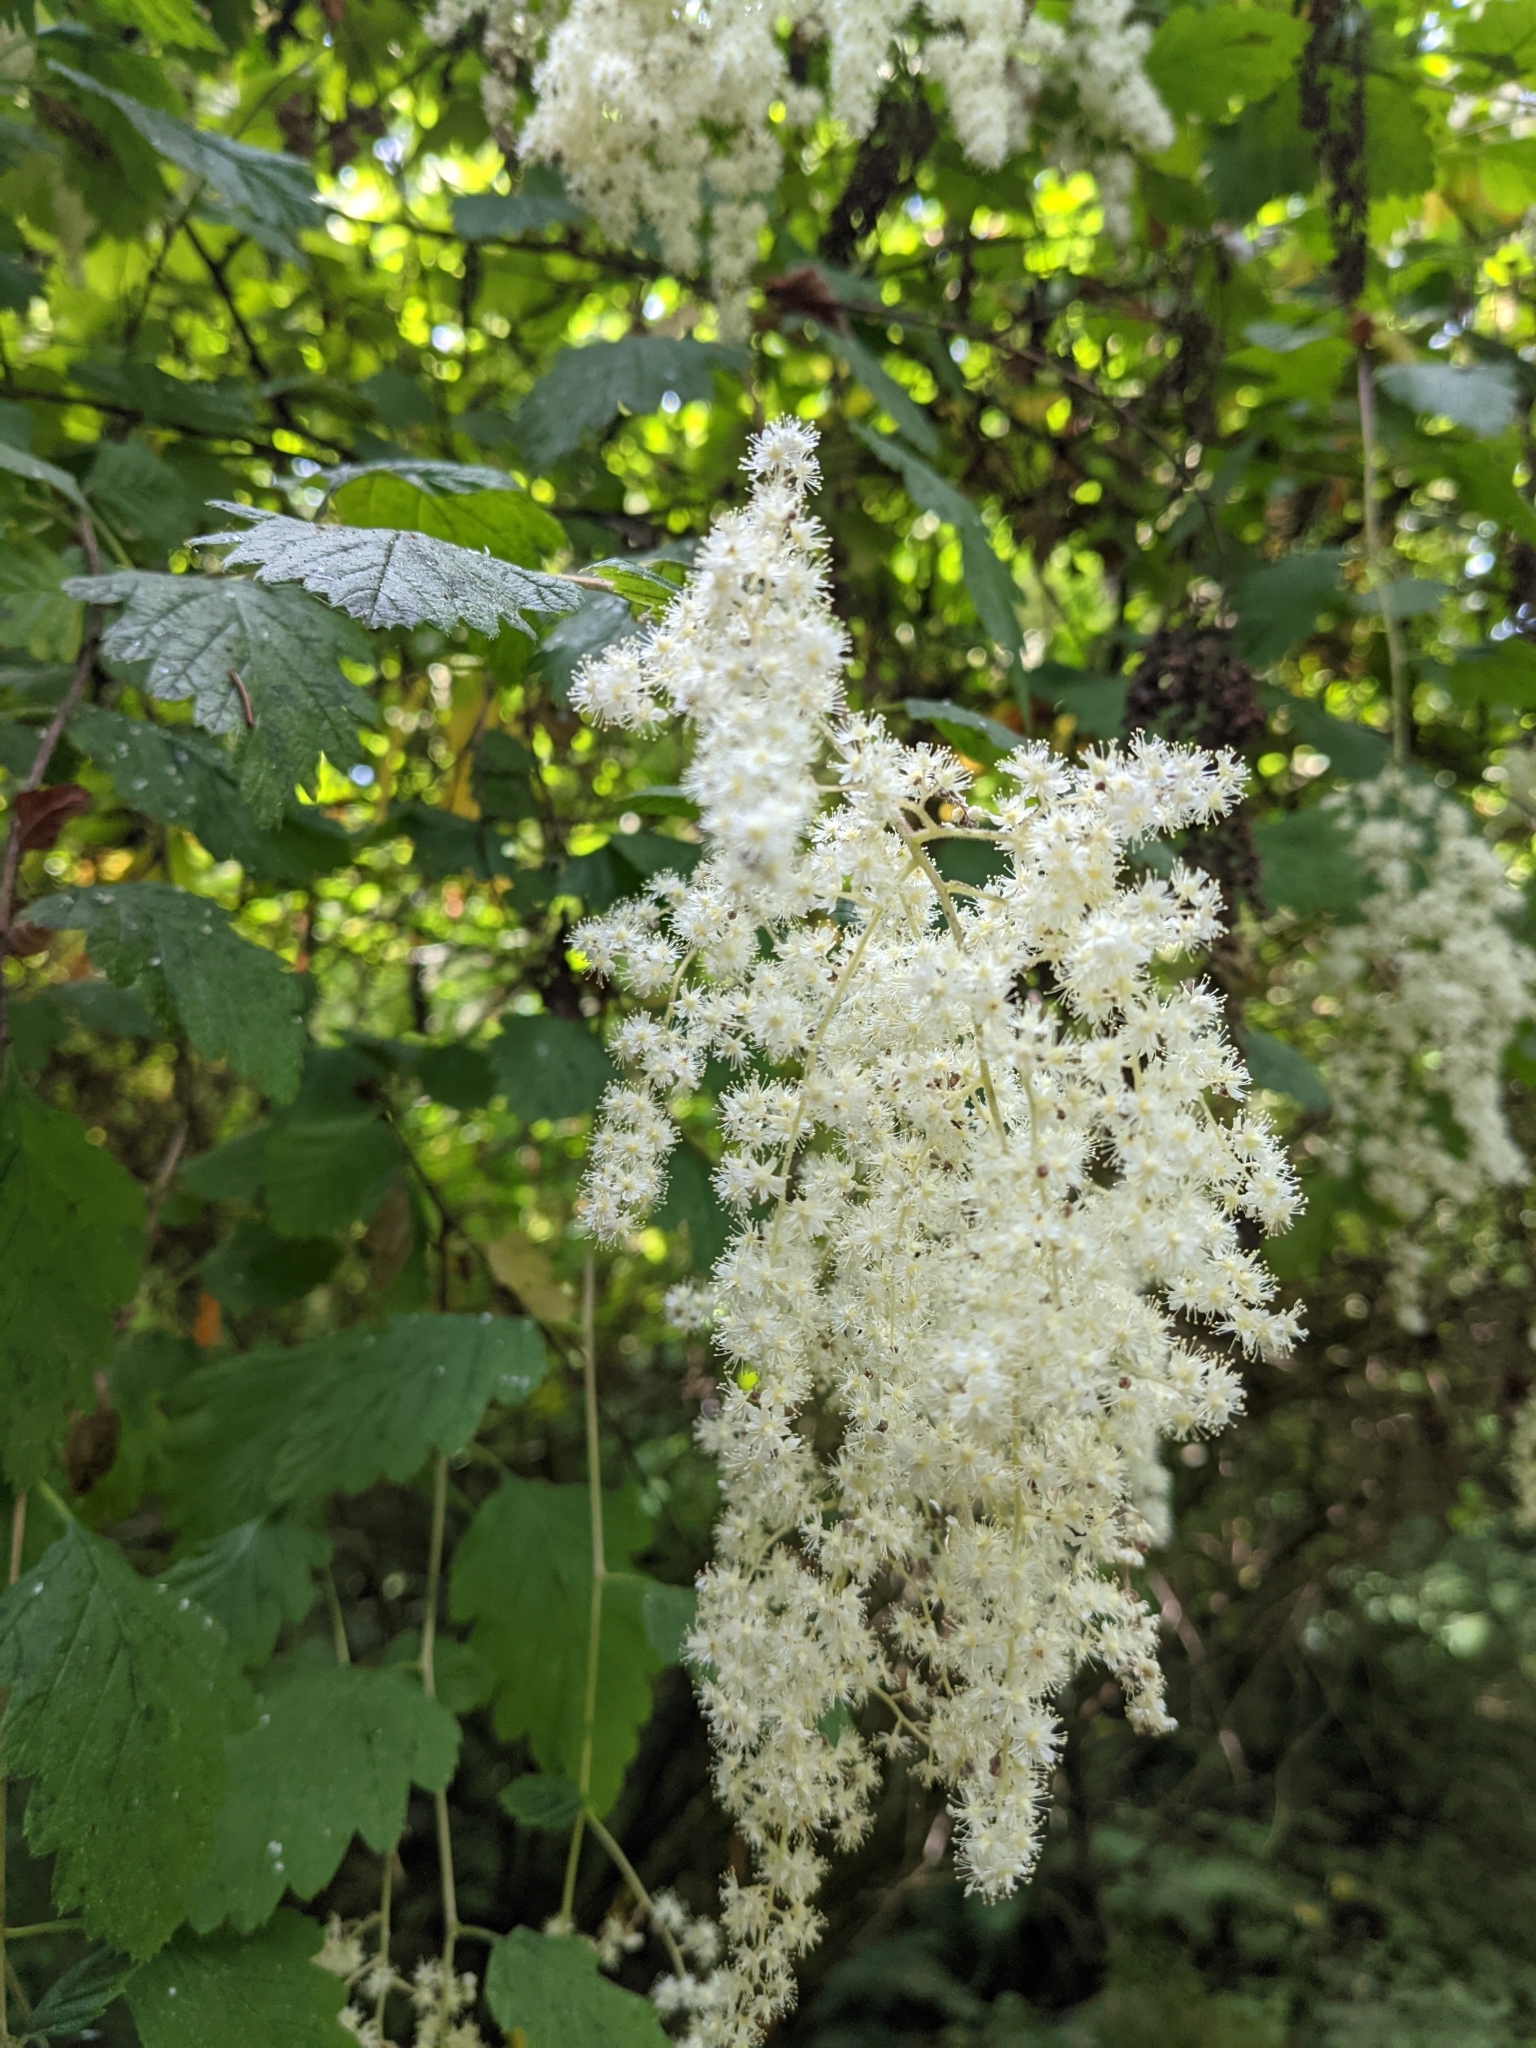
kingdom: Plantae
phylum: Tracheophyta
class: Magnoliopsida
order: Rosales
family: Rosaceae
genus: Holodiscus
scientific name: Holodiscus discolor
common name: Oceanspray
